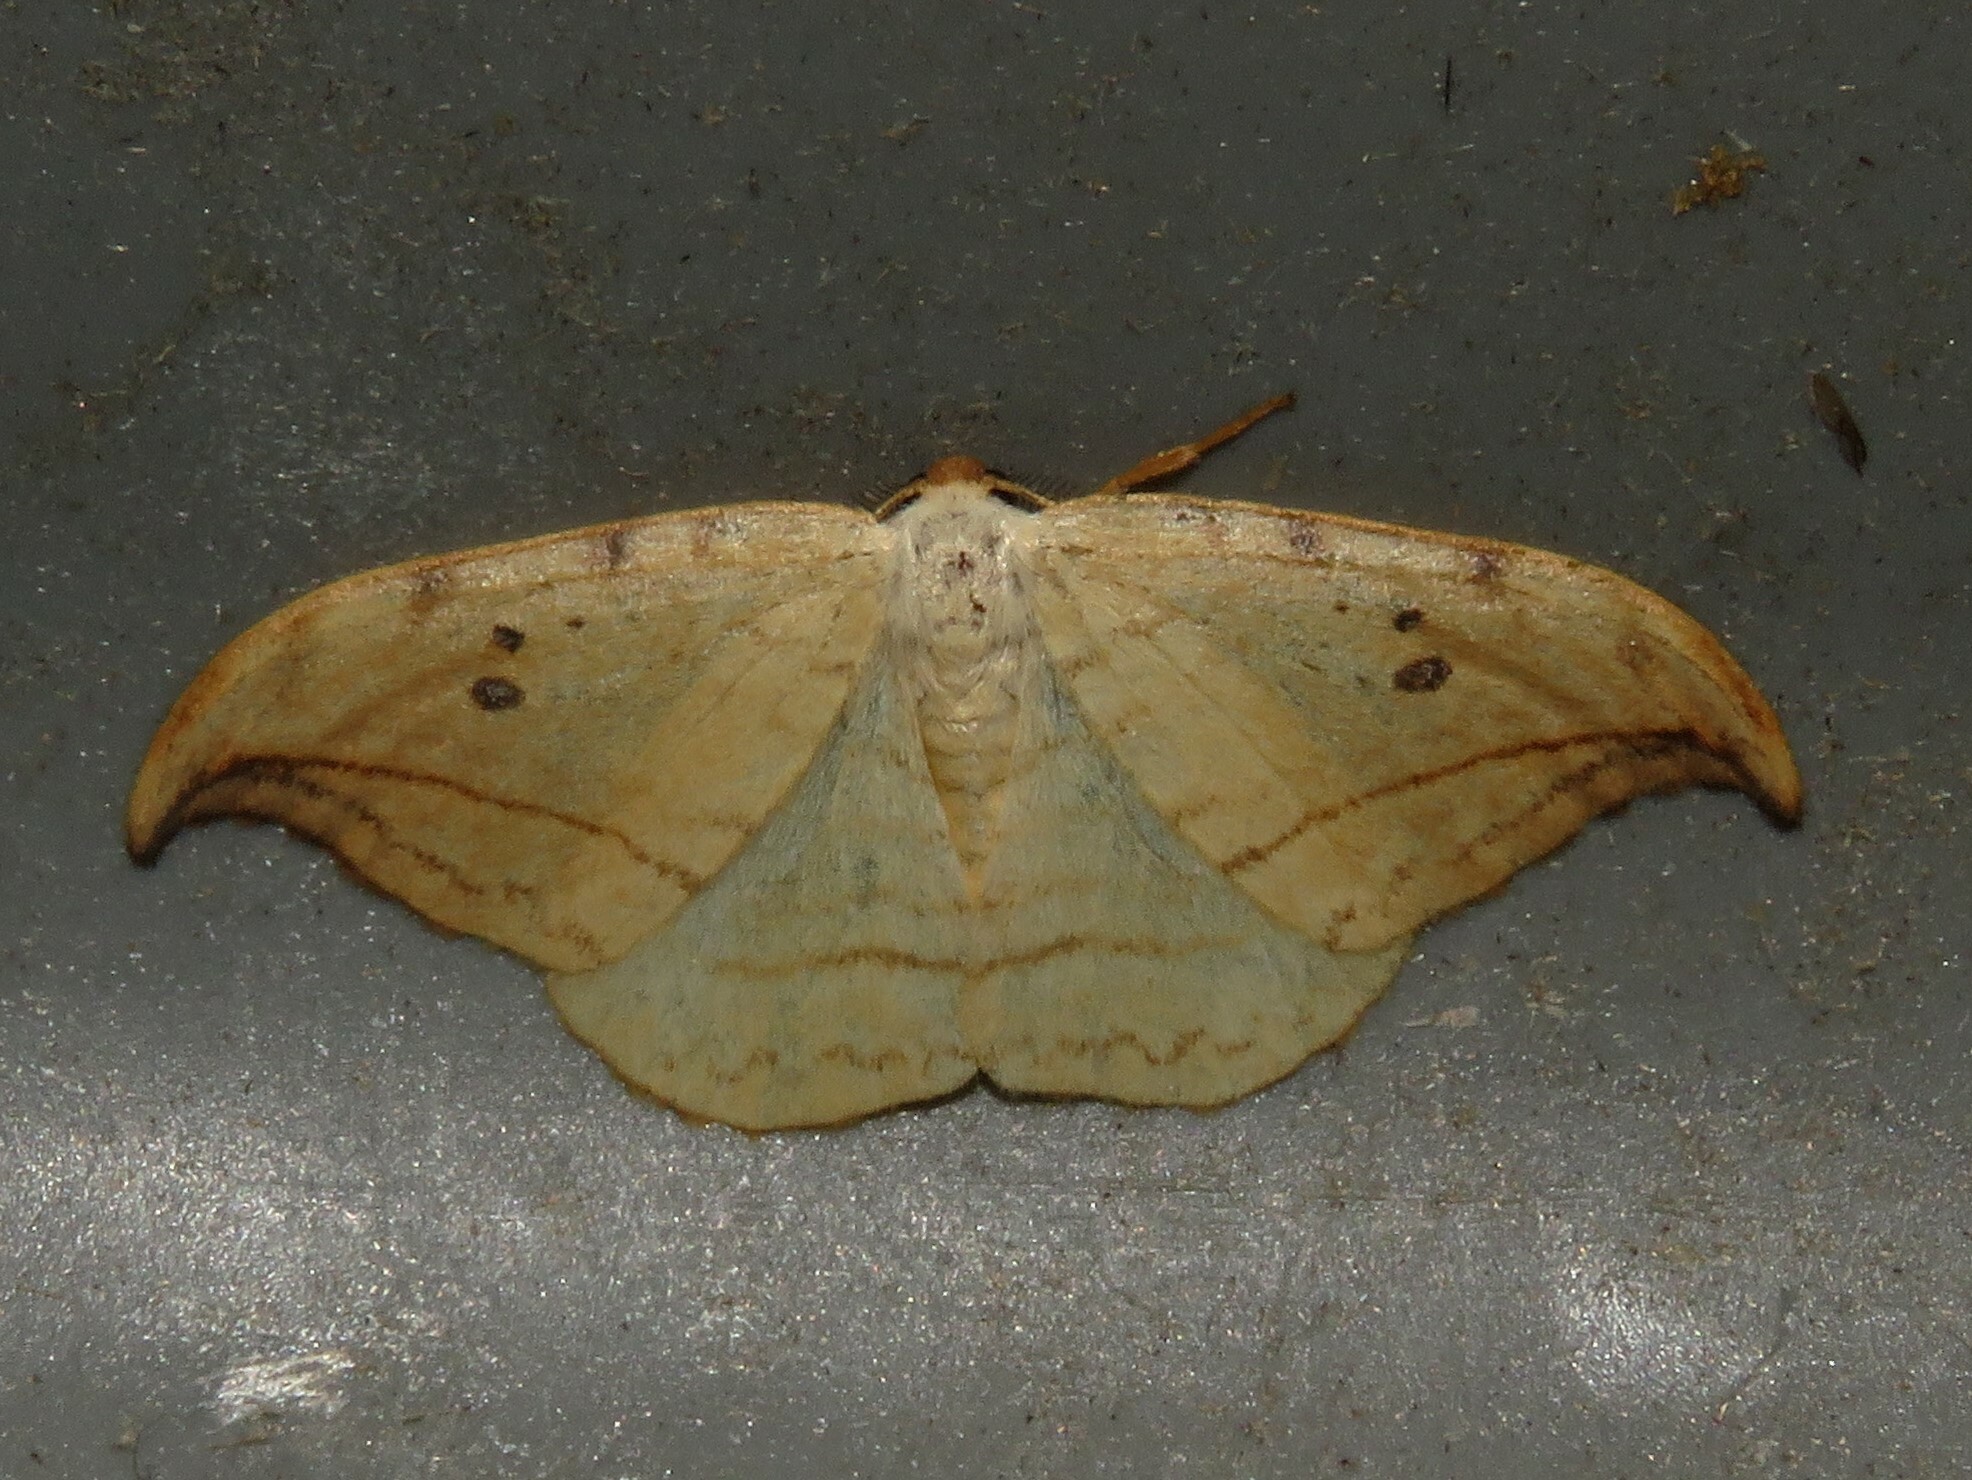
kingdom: Animalia
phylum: Arthropoda
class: Insecta
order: Lepidoptera
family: Drepanidae
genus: Drepana
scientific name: Drepana arcuata
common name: Arched hooktip moth
